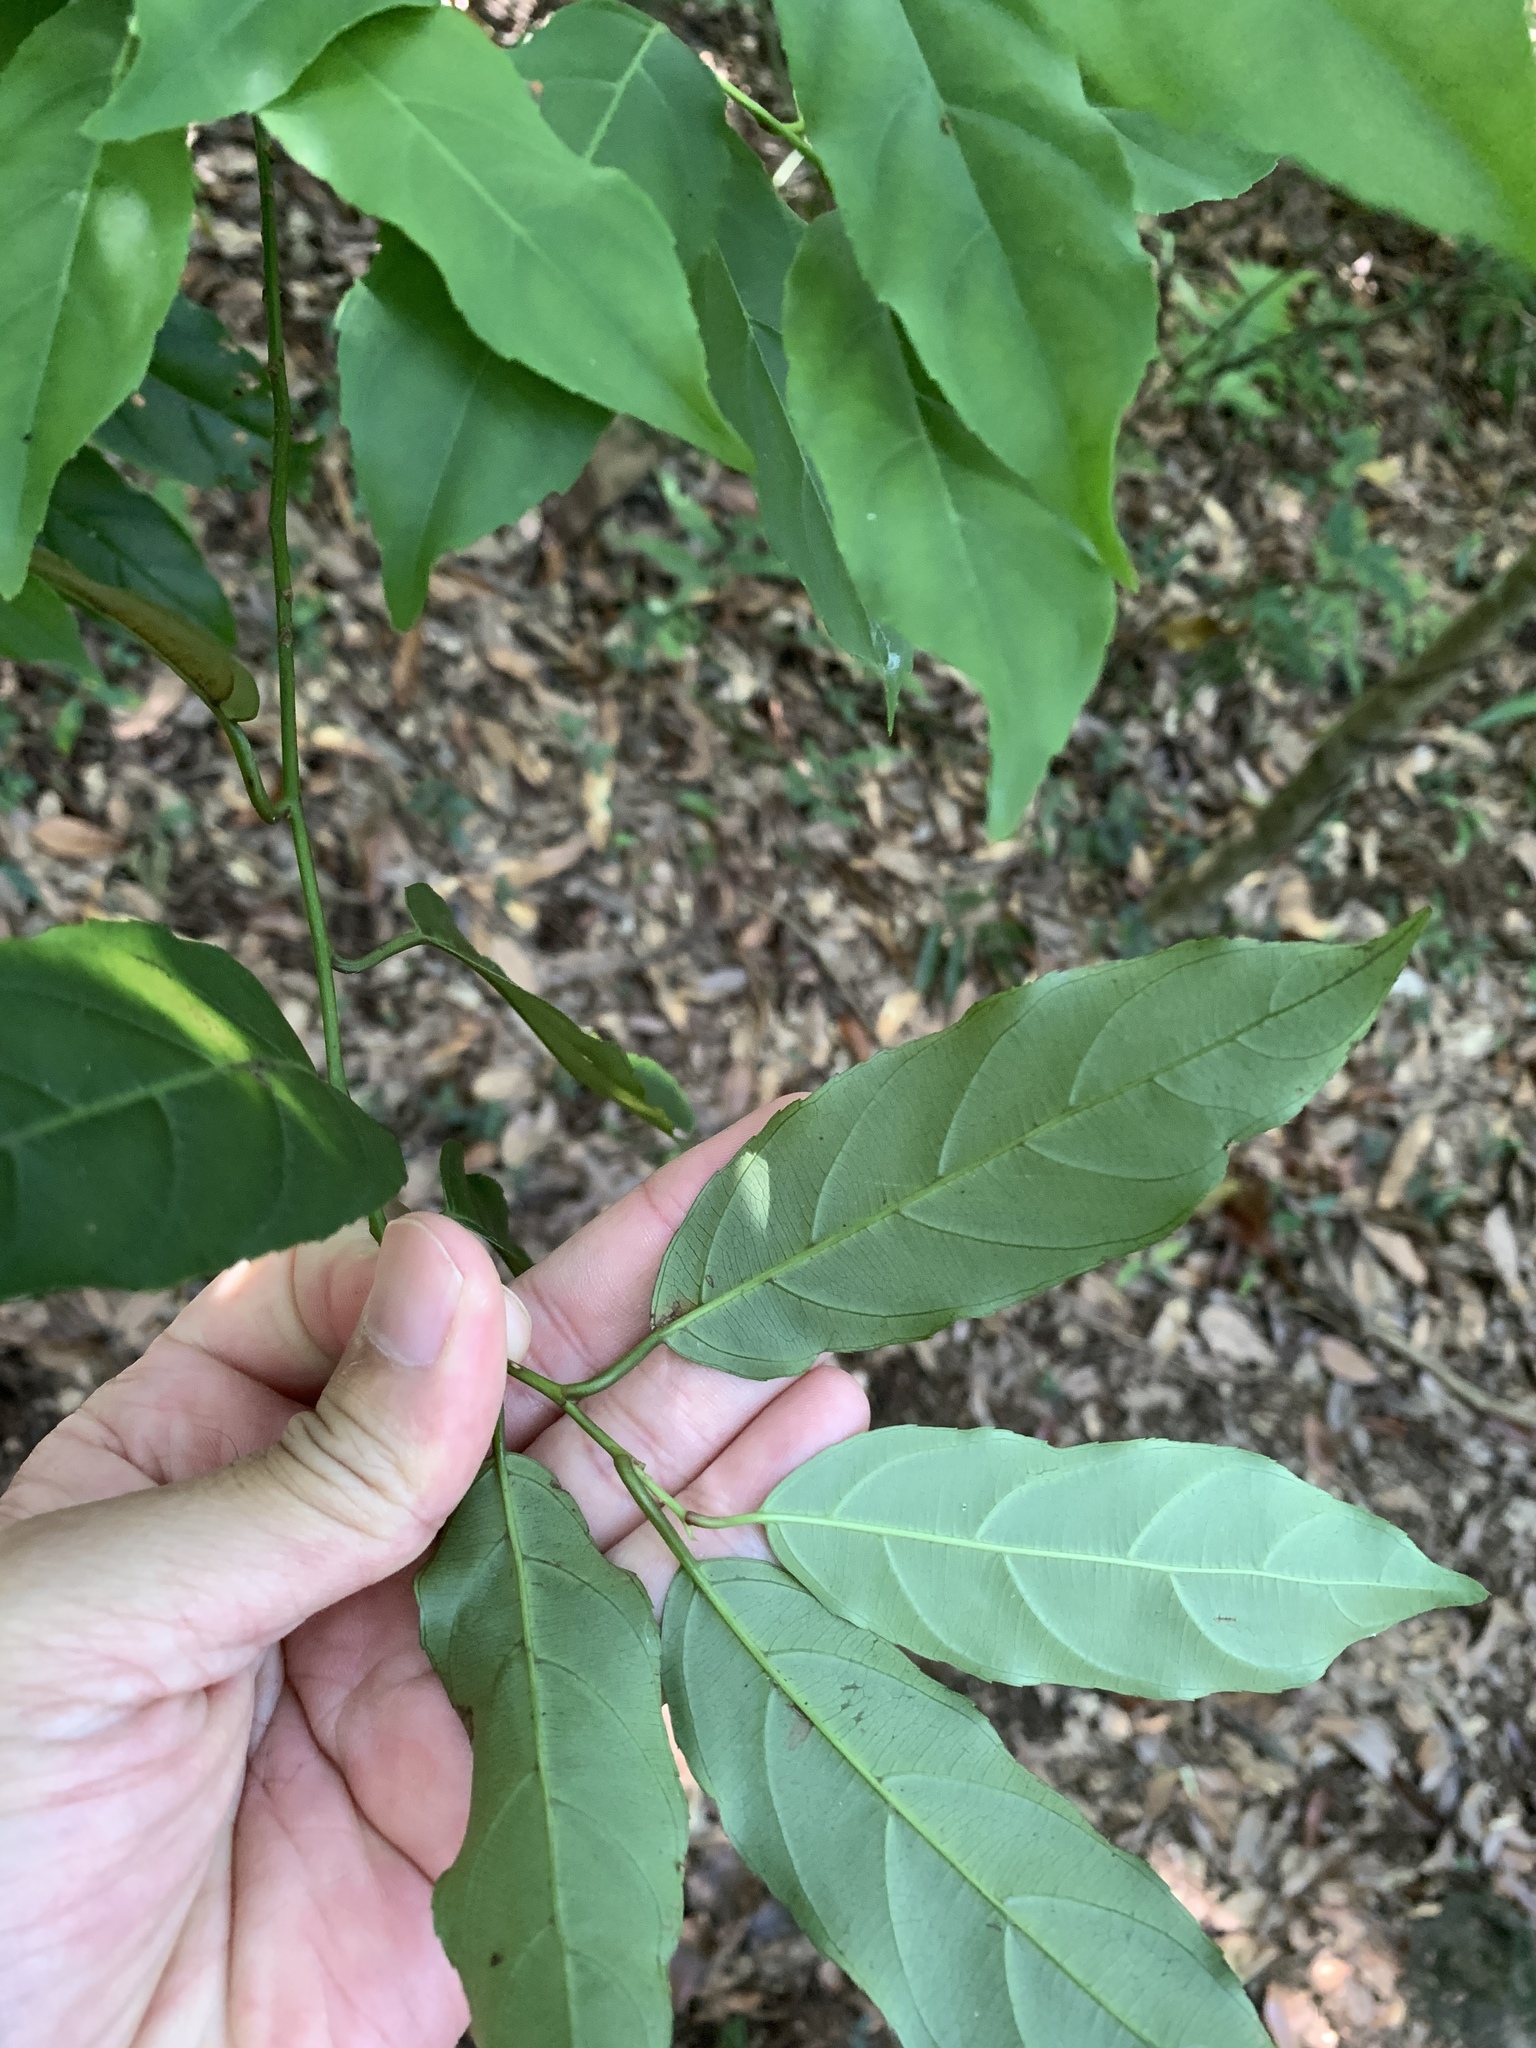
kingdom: Plantae
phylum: Tracheophyta
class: Magnoliopsida
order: Saxifragales
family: Iteaceae
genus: Itea
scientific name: Itea parviflora
